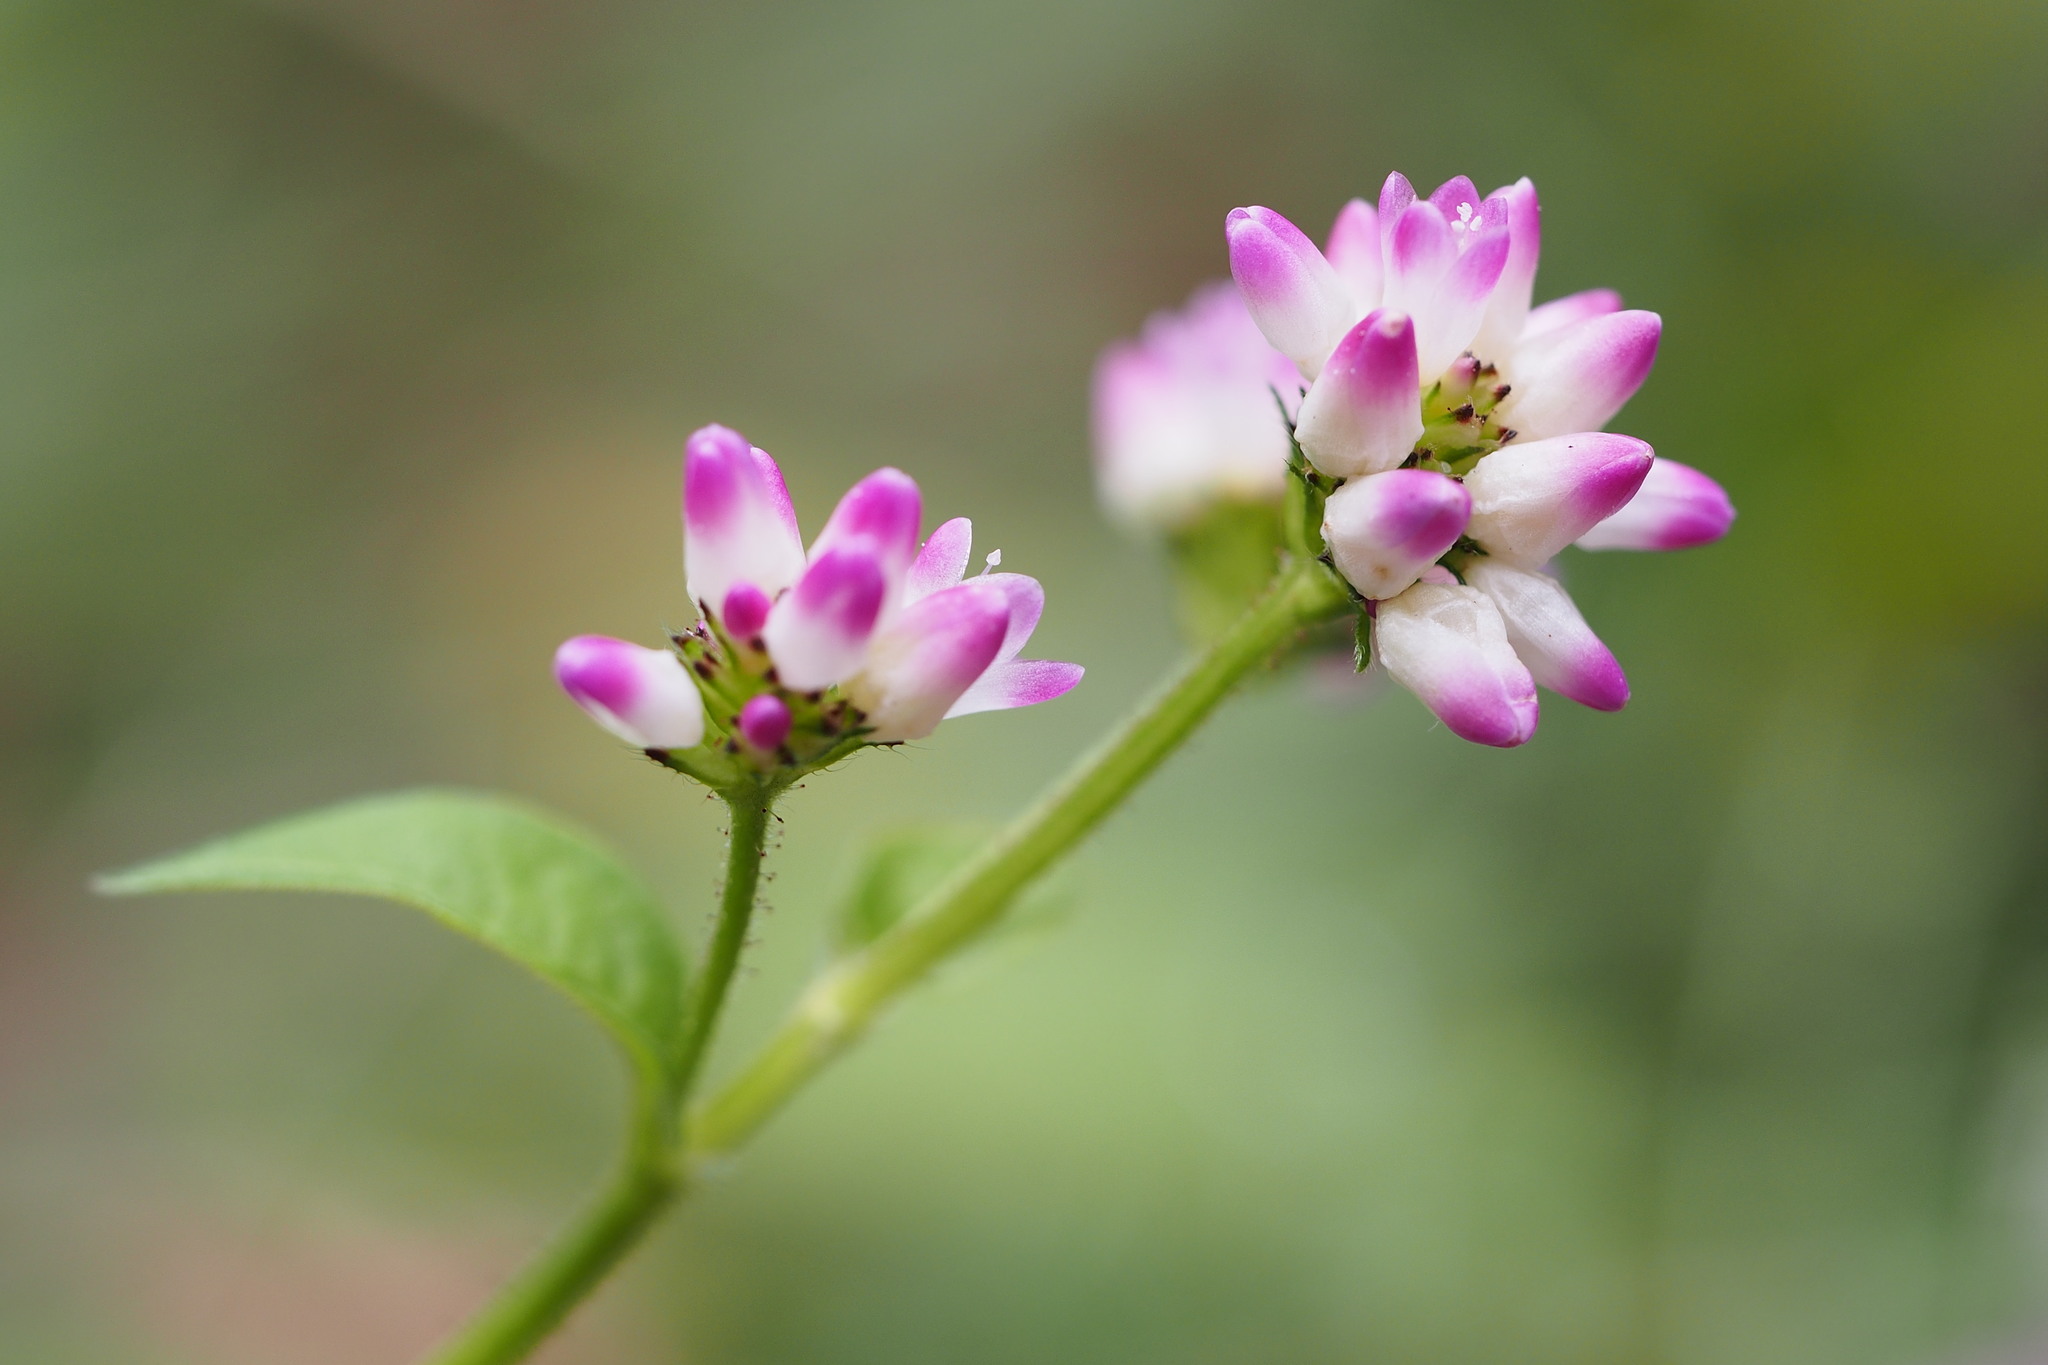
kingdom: Plantae
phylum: Tracheophyta
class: Magnoliopsida
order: Caryophyllales
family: Polygonaceae
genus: Persicaria
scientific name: Persicaria thunbergii
